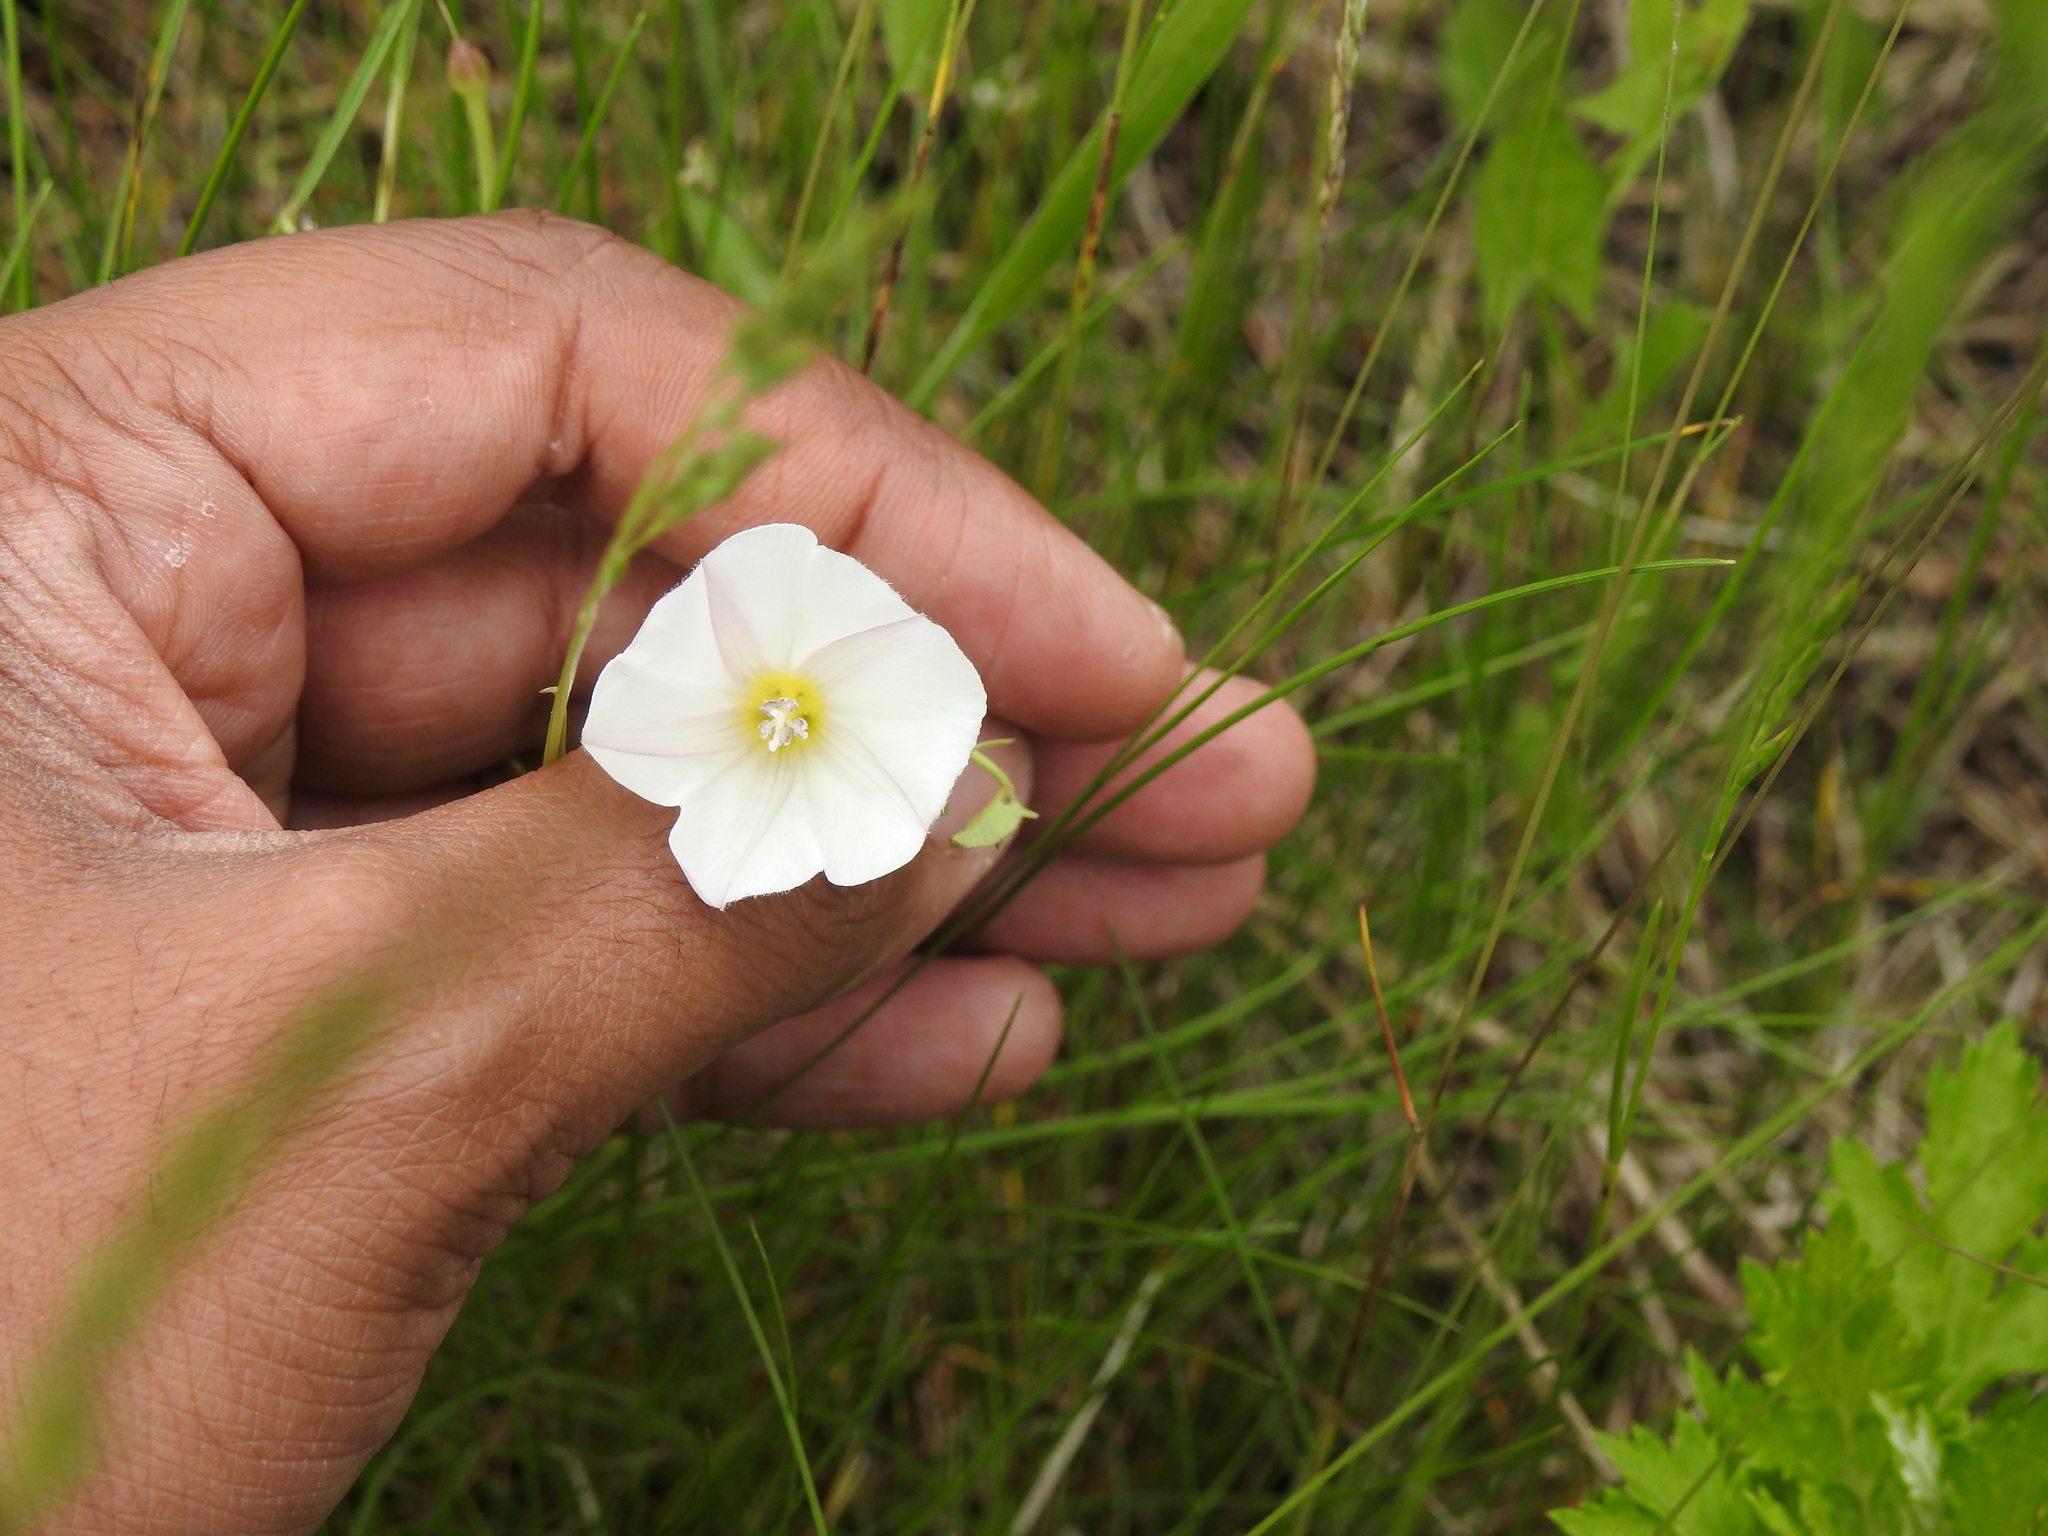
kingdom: Plantae
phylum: Tracheophyta
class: Magnoliopsida
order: Solanales
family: Convolvulaceae
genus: Convolvulus
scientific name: Convolvulus arvensis
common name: Field bindweed
